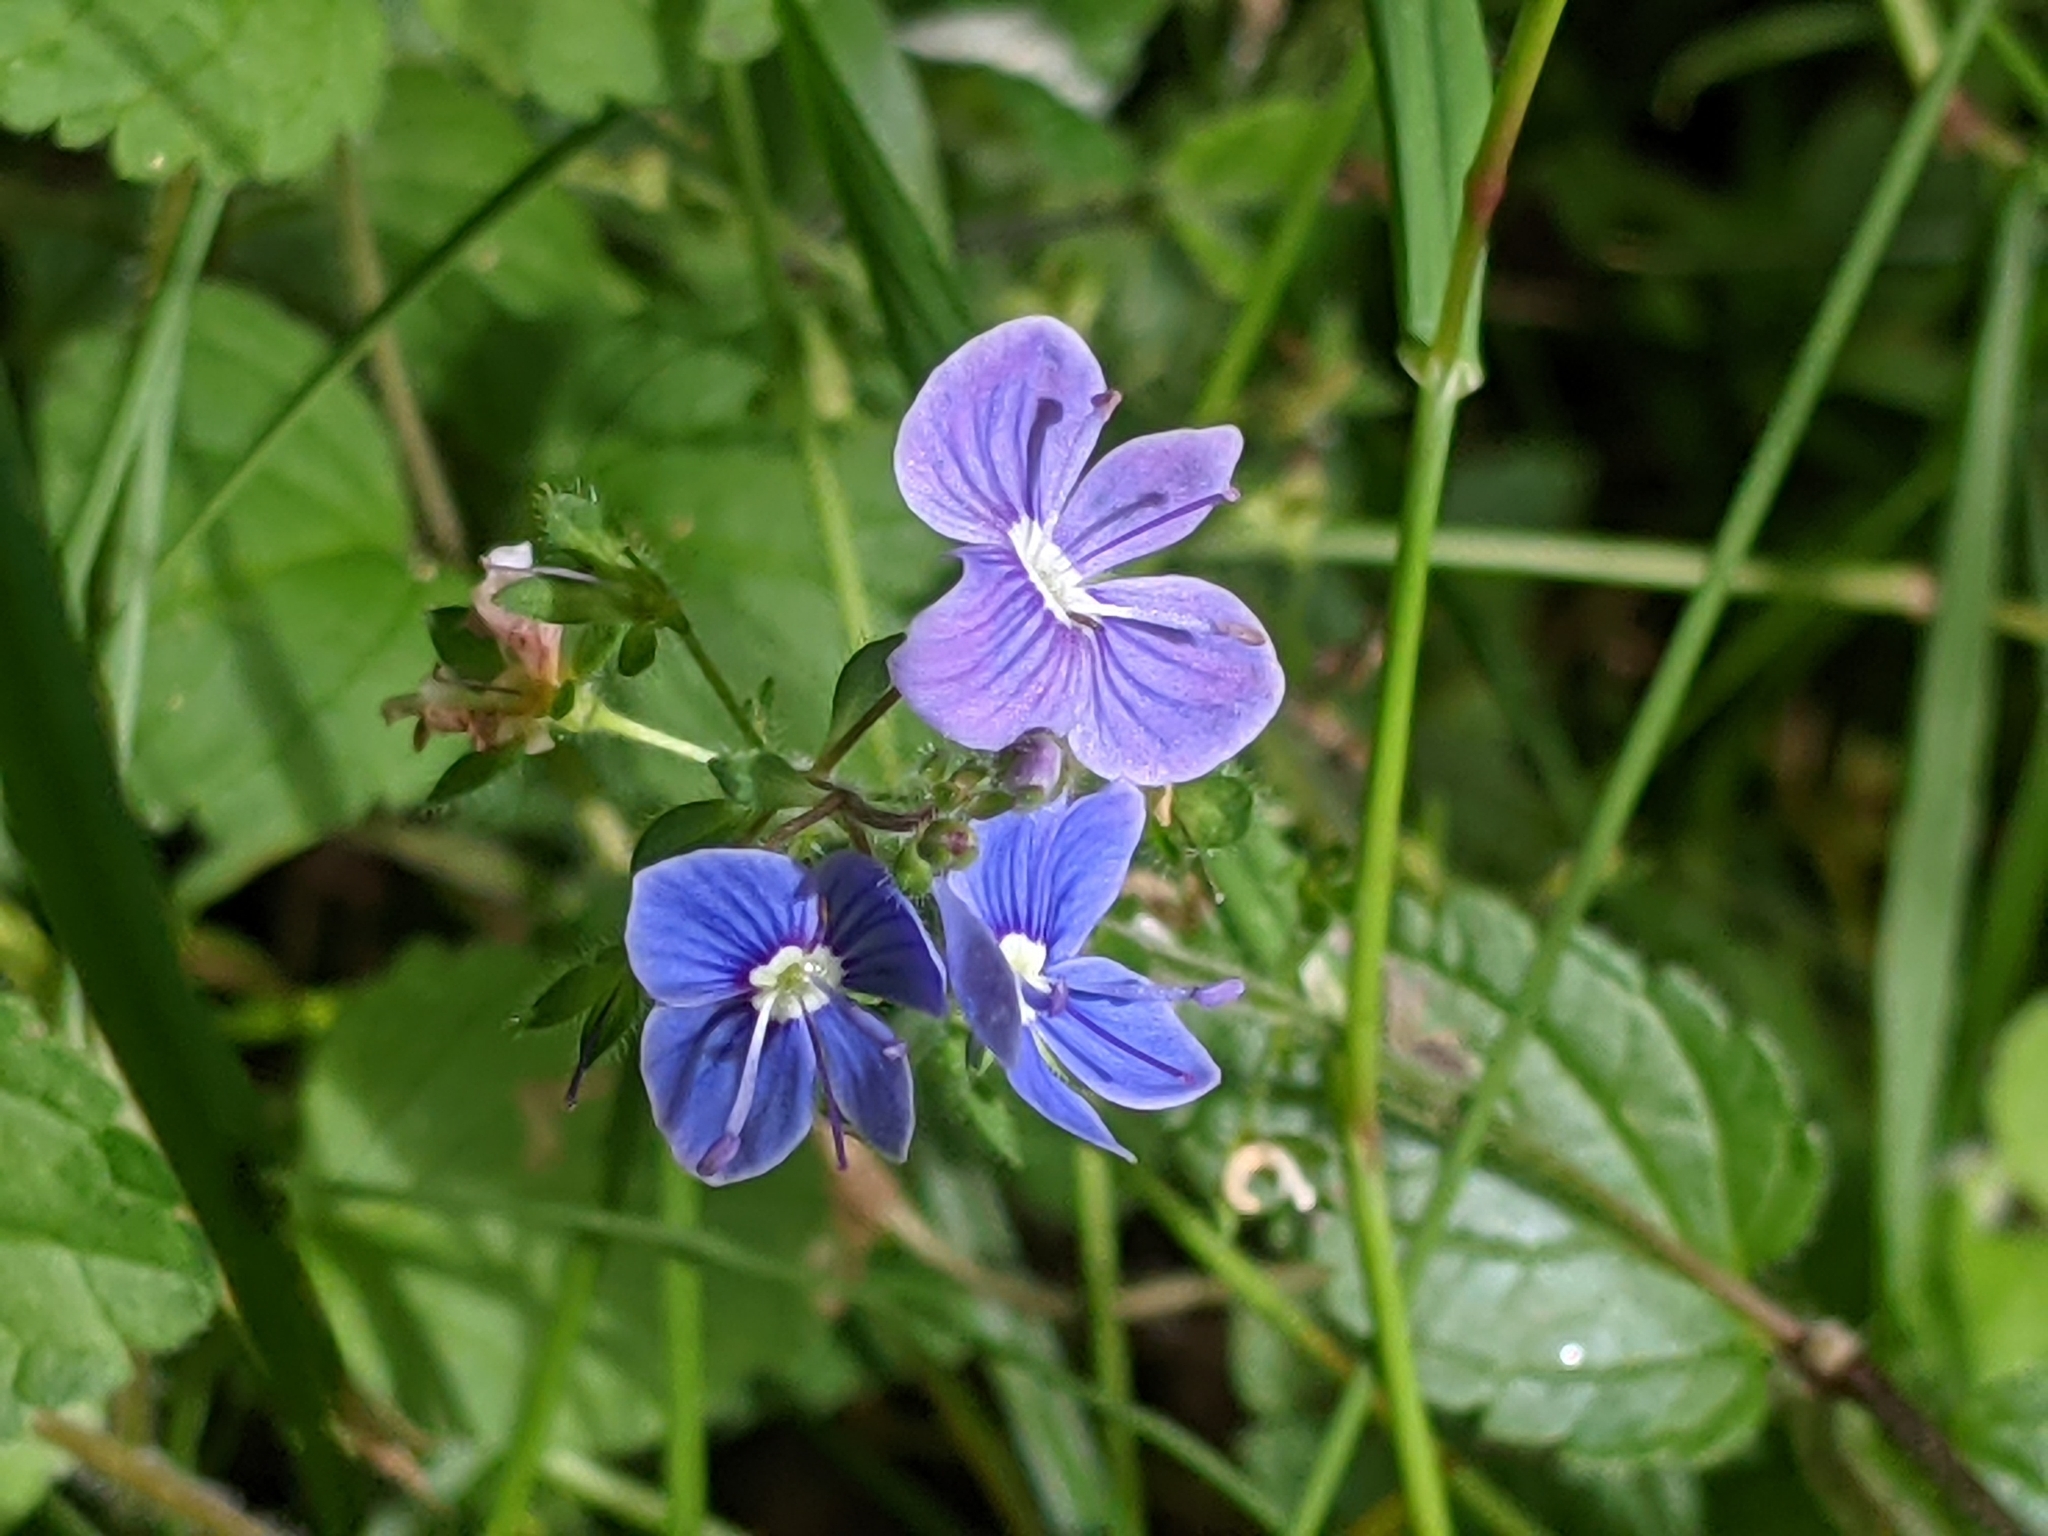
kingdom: Plantae
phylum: Tracheophyta
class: Magnoliopsida
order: Lamiales
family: Plantaginaceae
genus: Veronica
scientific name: Veronica chamaedrys
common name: Germander speedwell
